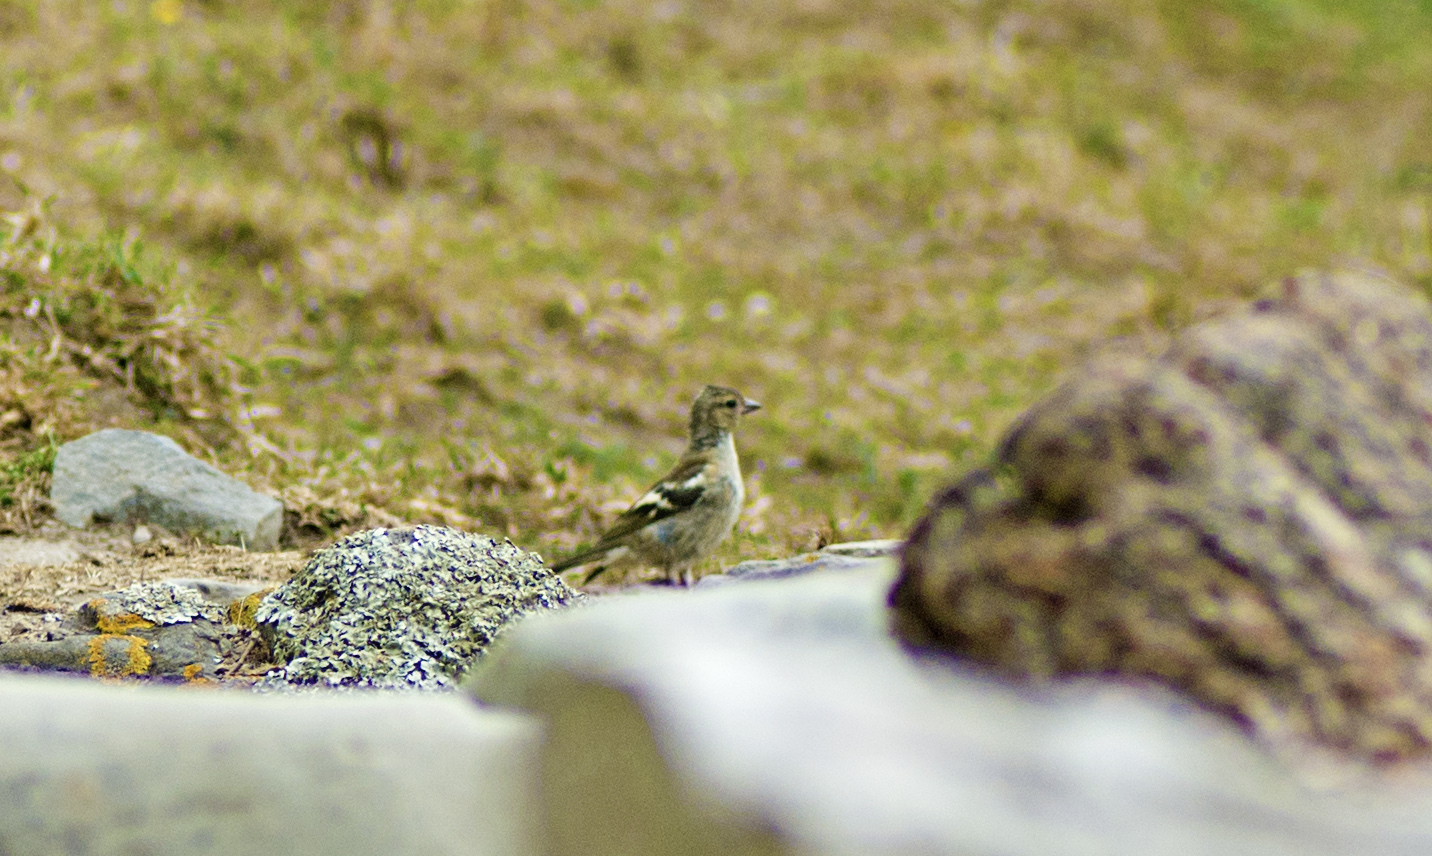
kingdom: Animalia
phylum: Chordata
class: Aves
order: Passeriformes
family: Fringillidae
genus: Fringilla
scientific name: Fringilla coelebs
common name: Common chaffinch
